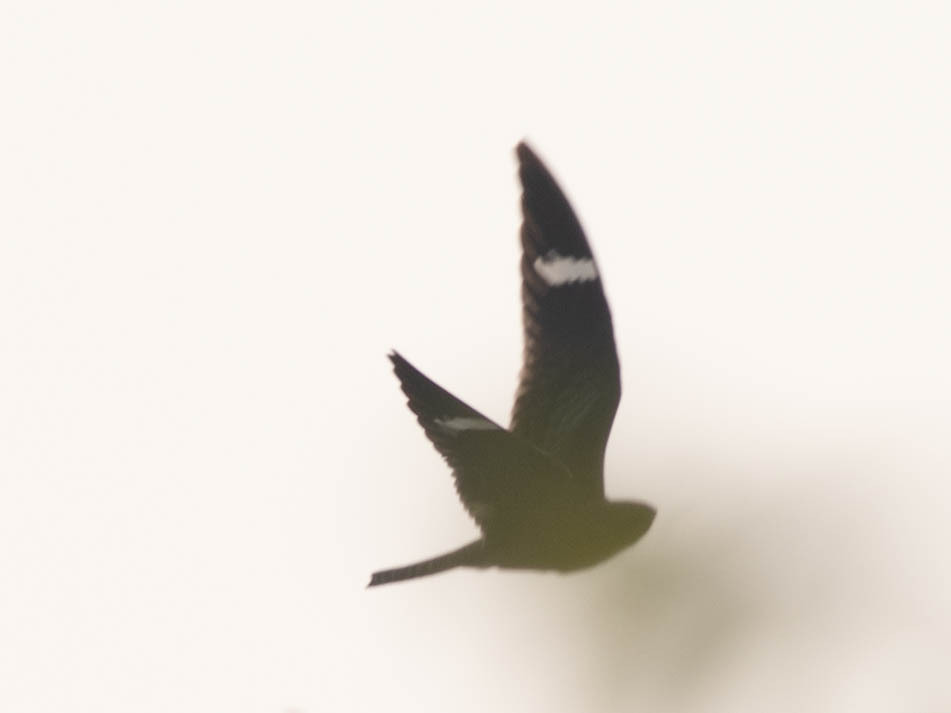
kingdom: Animalia
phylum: Chordata
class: Aves
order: Caprimulgiformes
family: Caprimulgidae
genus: Chordeiles
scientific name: Chordeiles minor
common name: Common nighthawk
